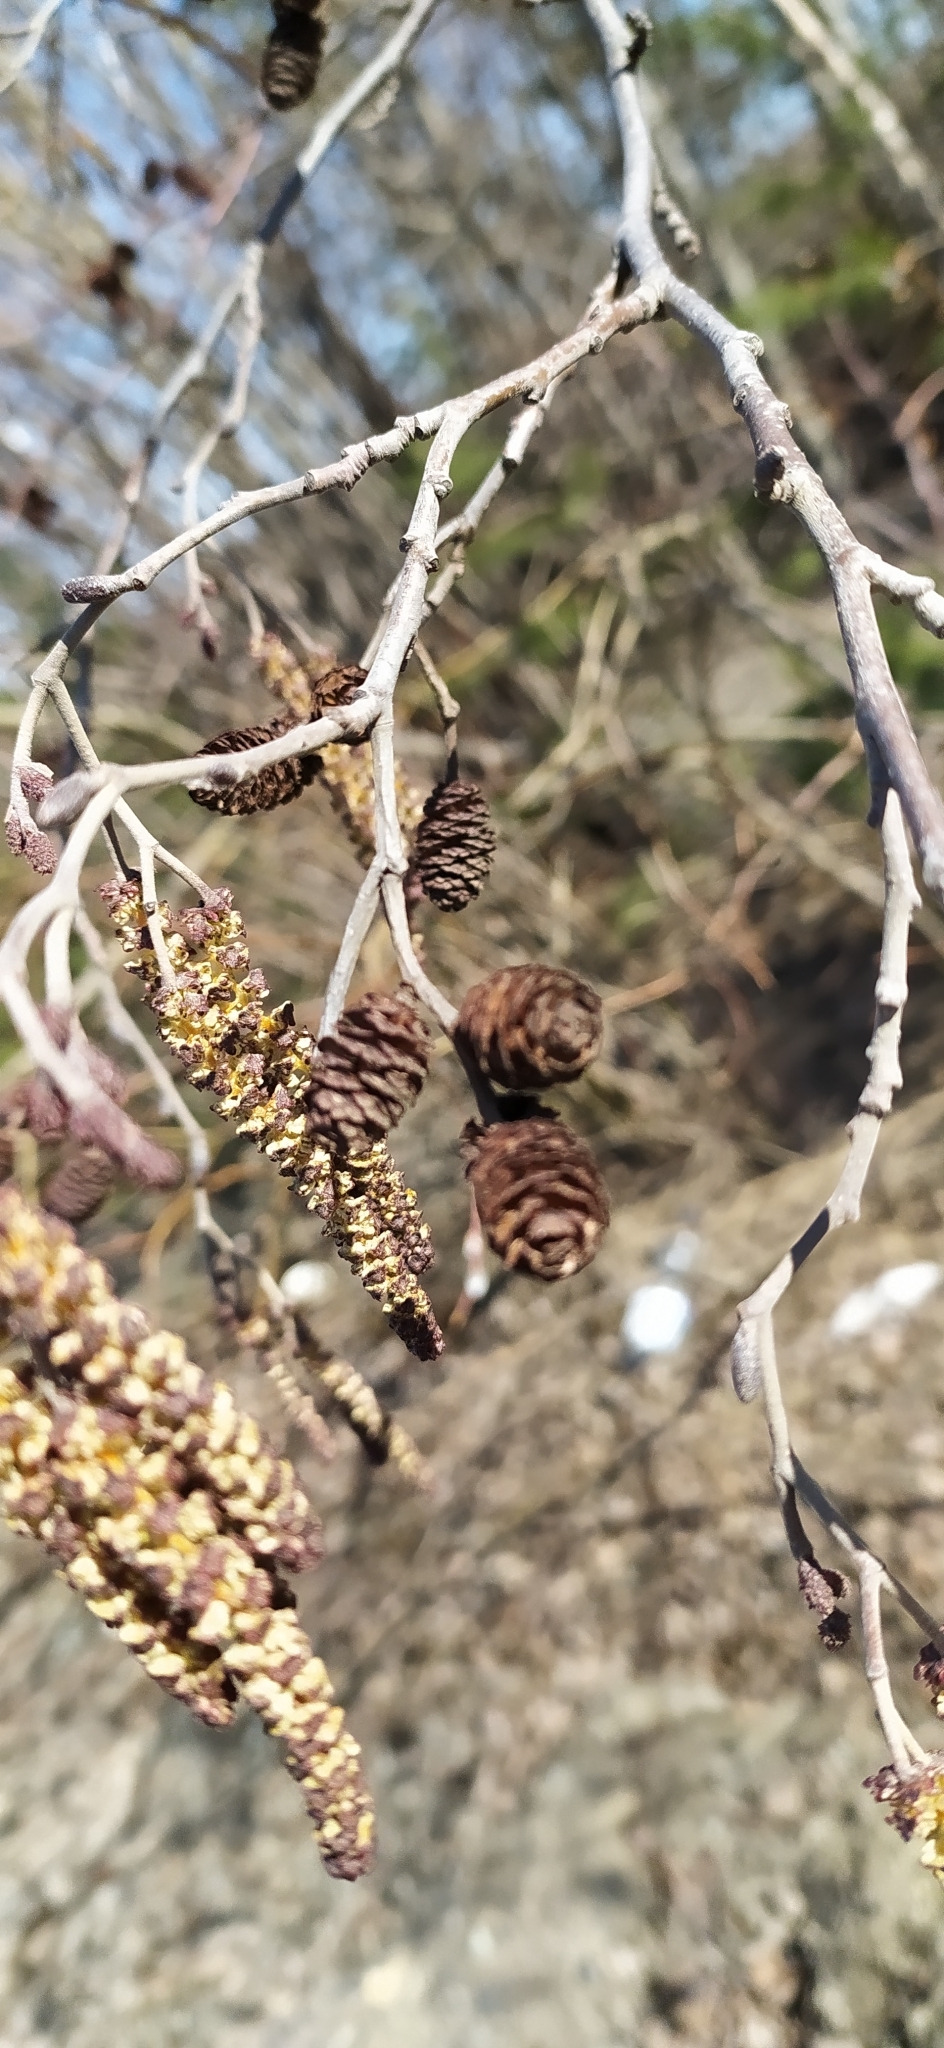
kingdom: Plantae
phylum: Tracheophyta
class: Magnoliopsida
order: Fagales
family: Betulaceae
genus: Alnus
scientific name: Alnus incana
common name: Grey alder
